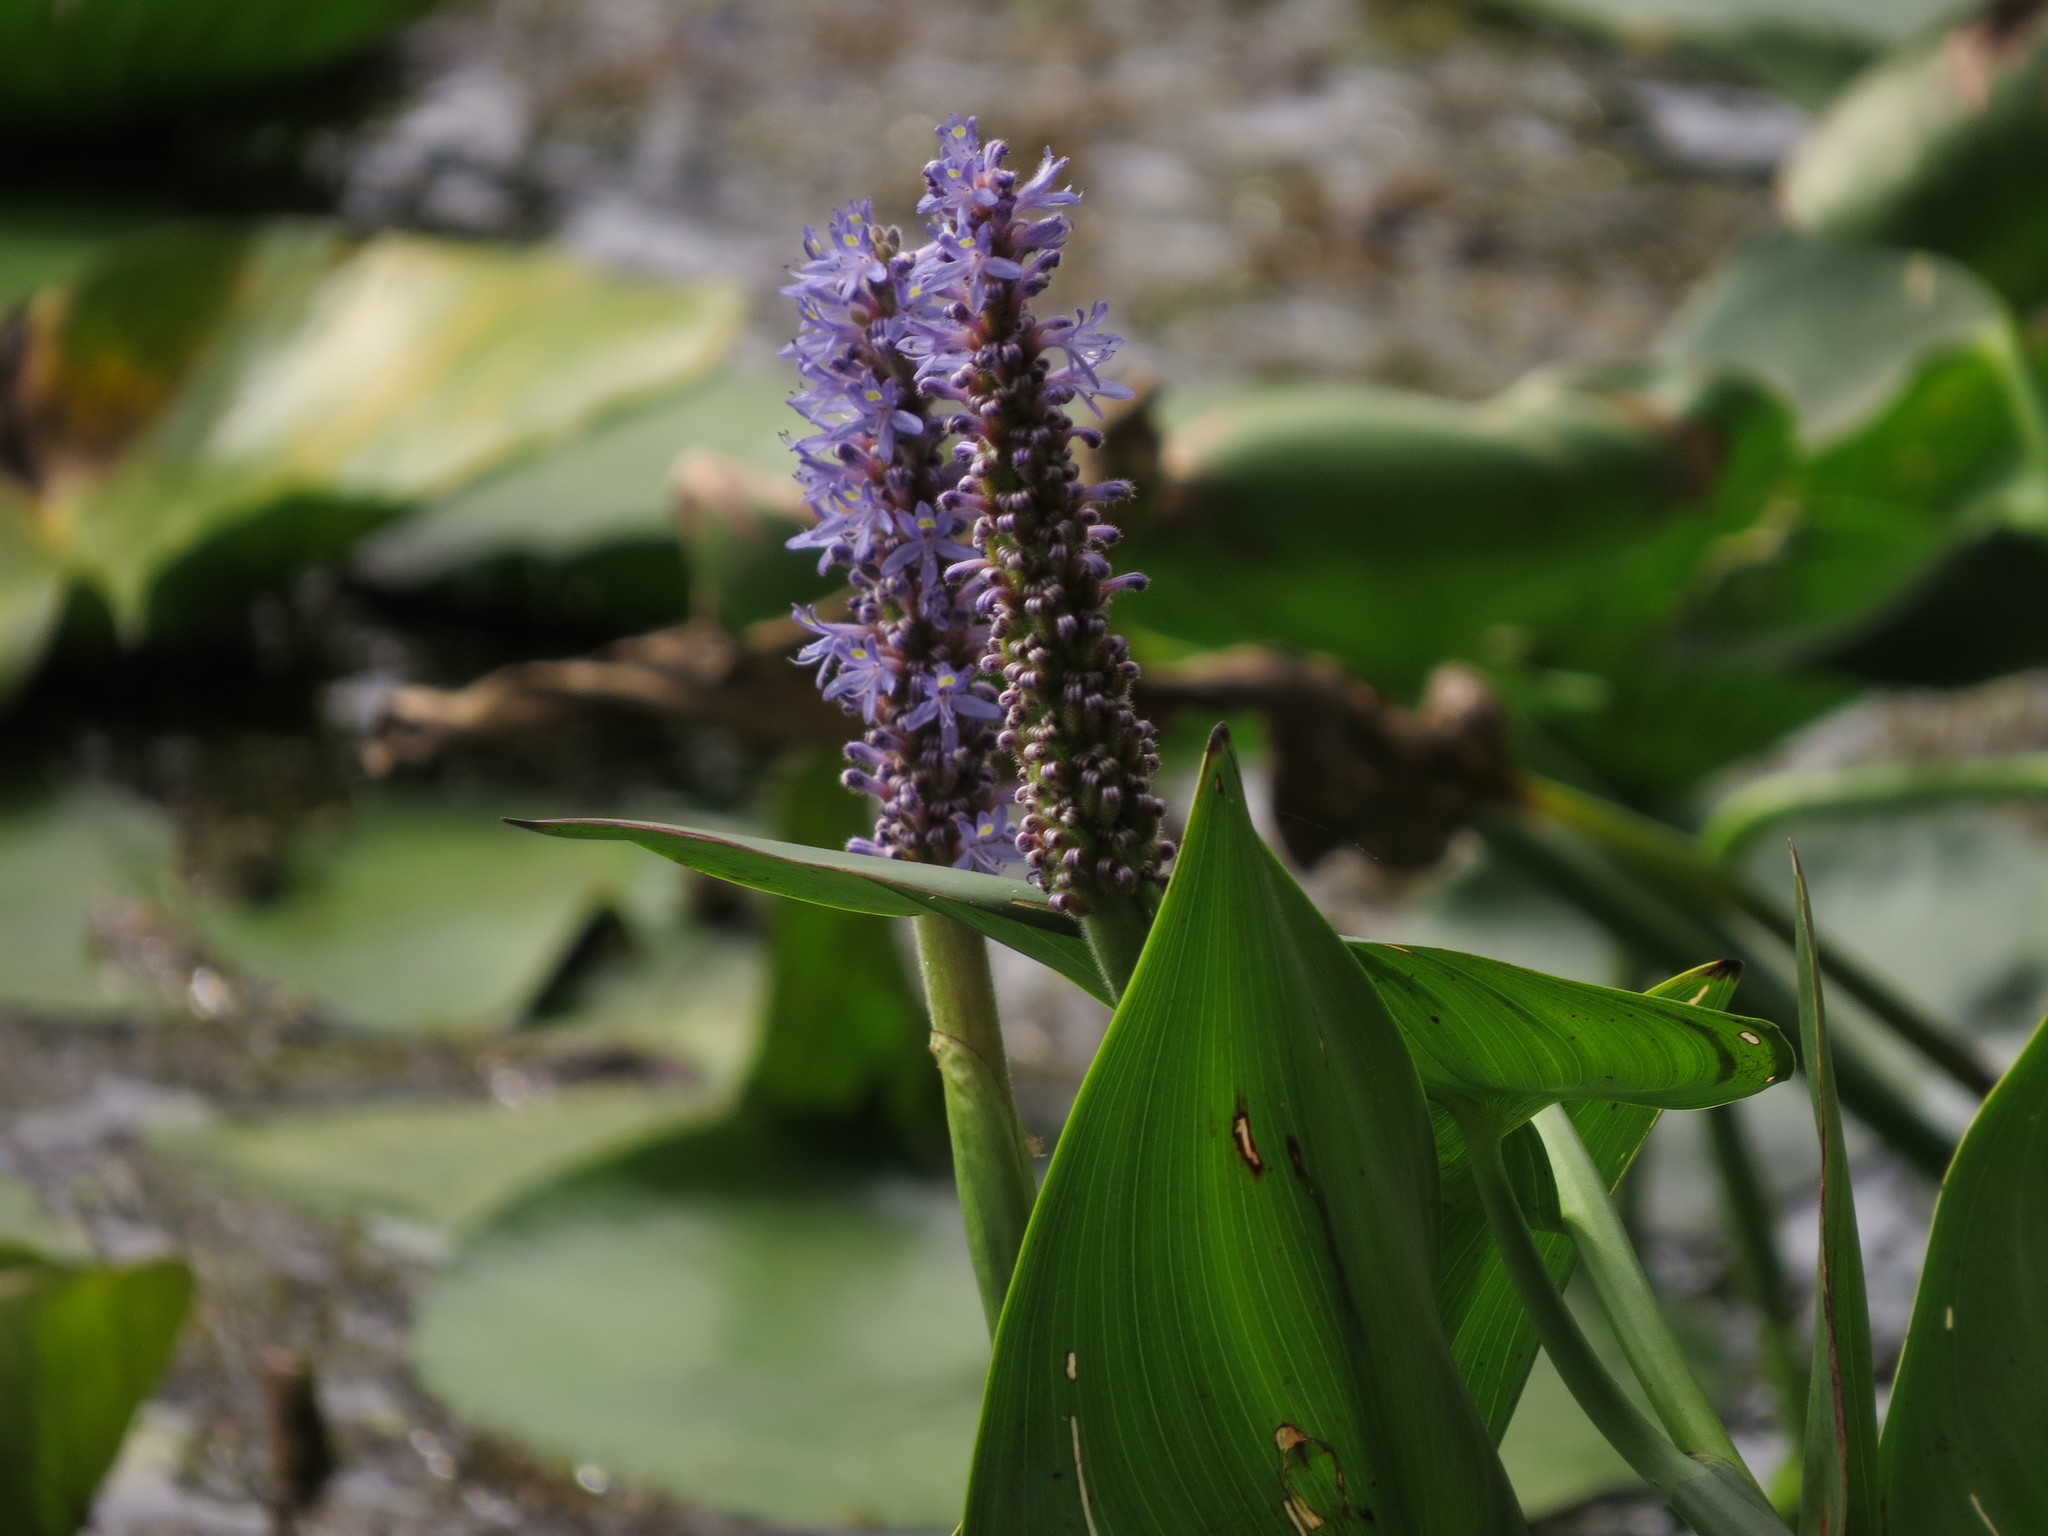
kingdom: Plantae
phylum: Tracheophyta
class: Liliopsida
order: Commelinales
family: Pontederiaceae
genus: Pontederia
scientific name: Pontederia cordata
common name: Pickerelweed
